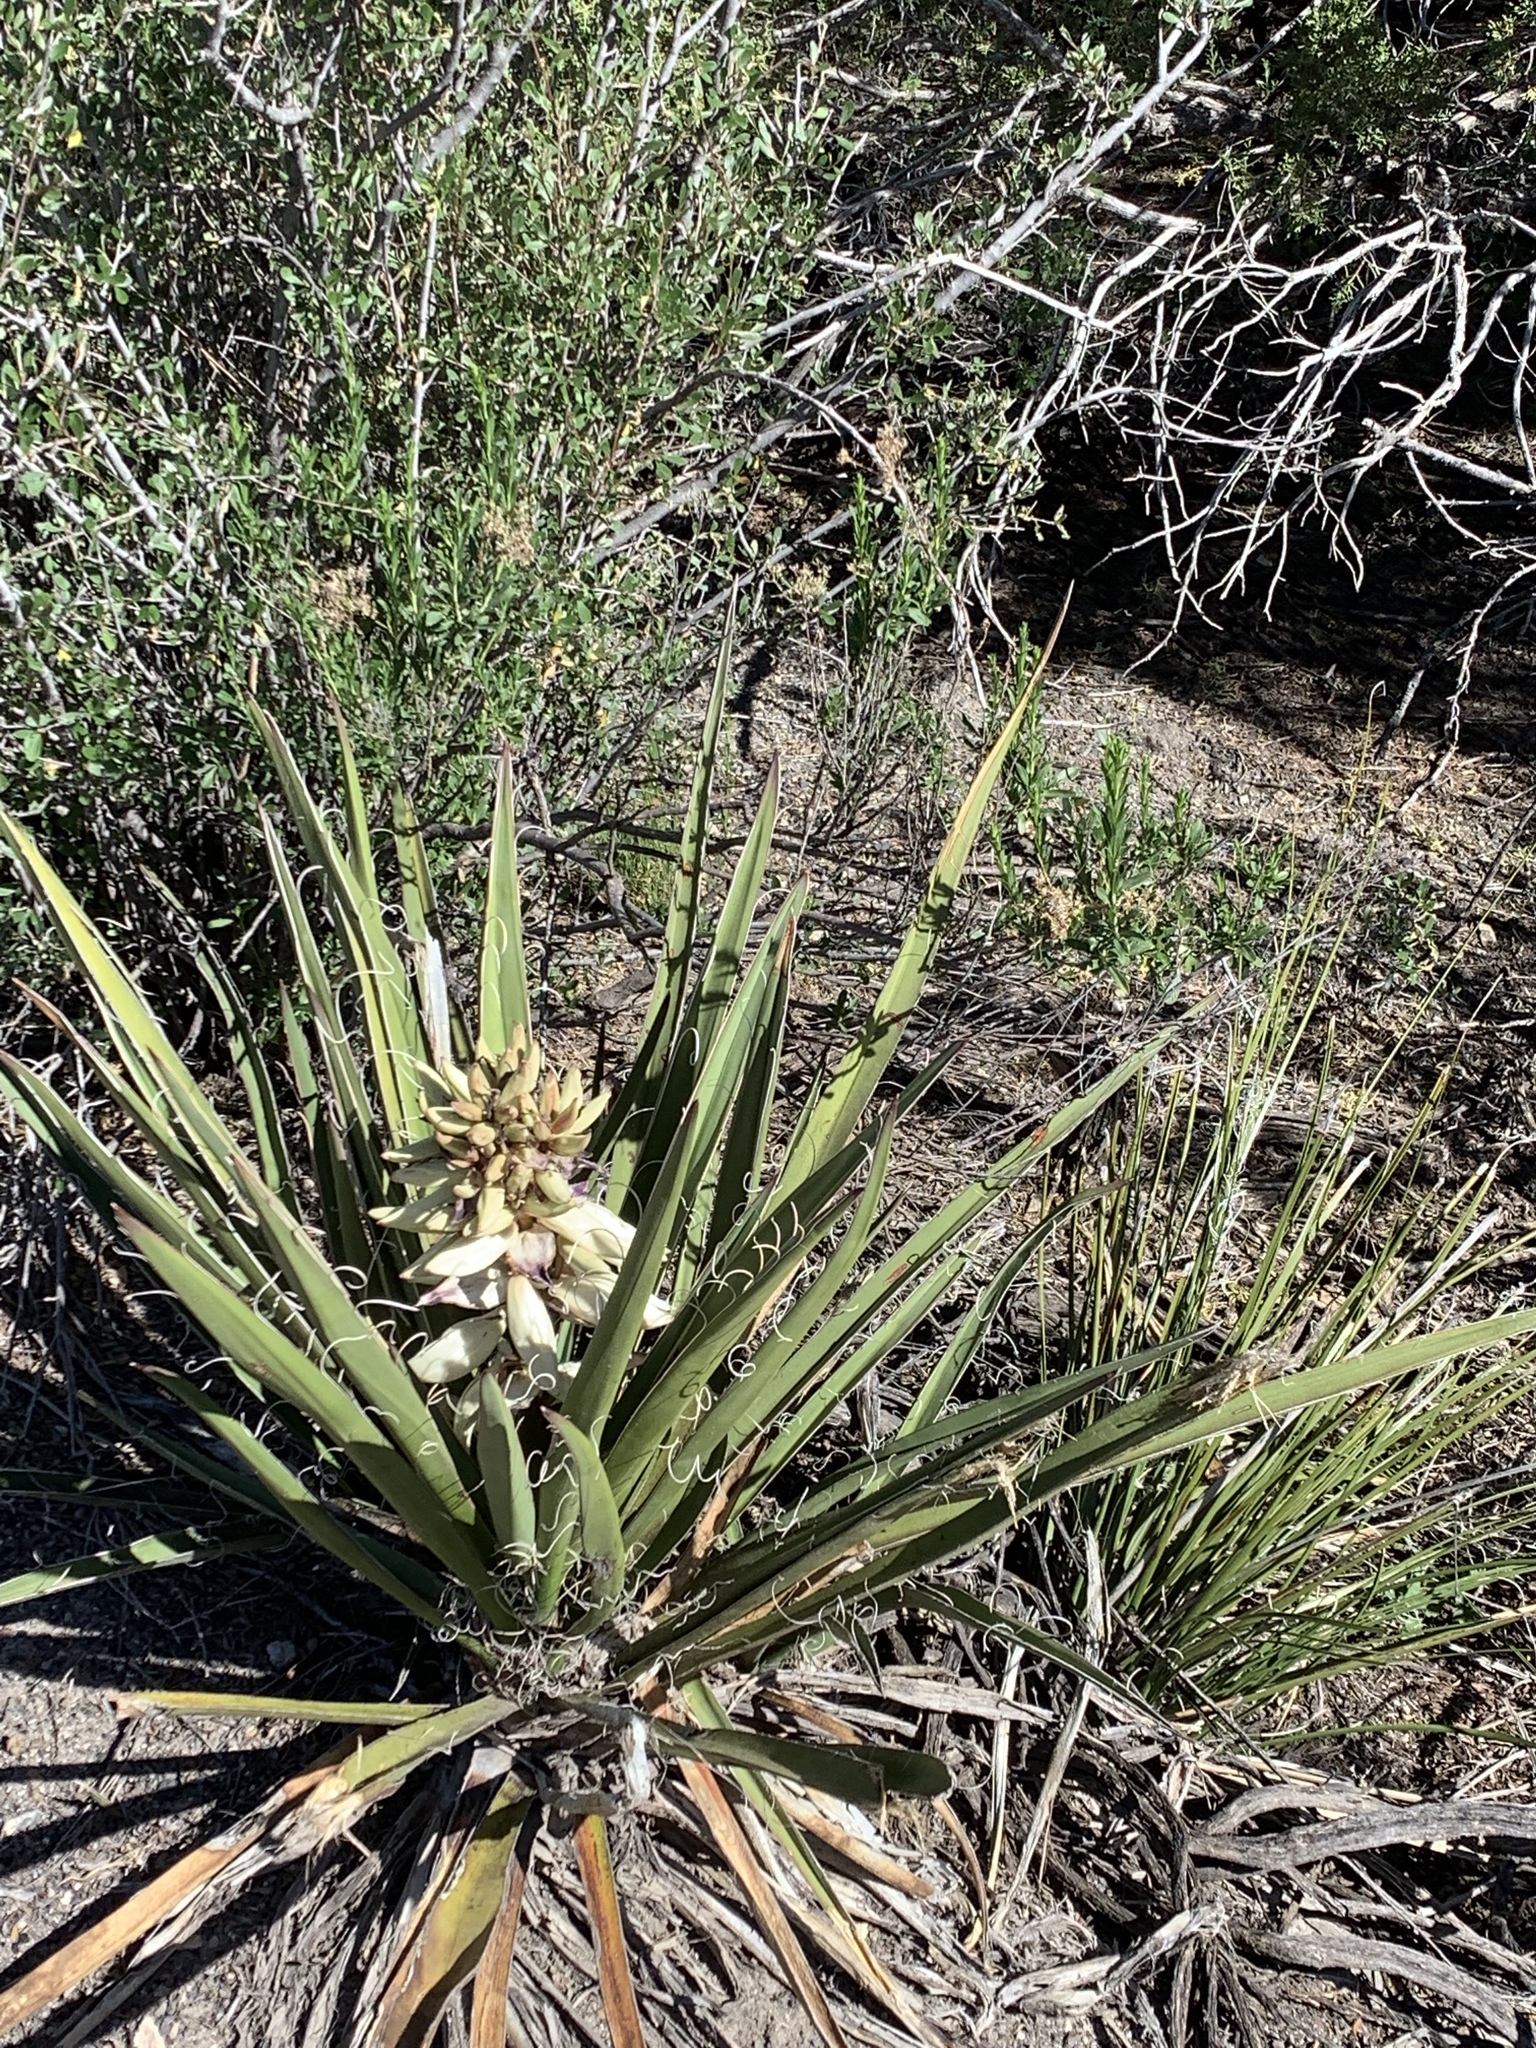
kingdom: Plantae
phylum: Tracheophyta
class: Liliopsida
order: Asparagales
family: Asparagaceae
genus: Yucca
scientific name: Yucca baccata
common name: Banana yucca
